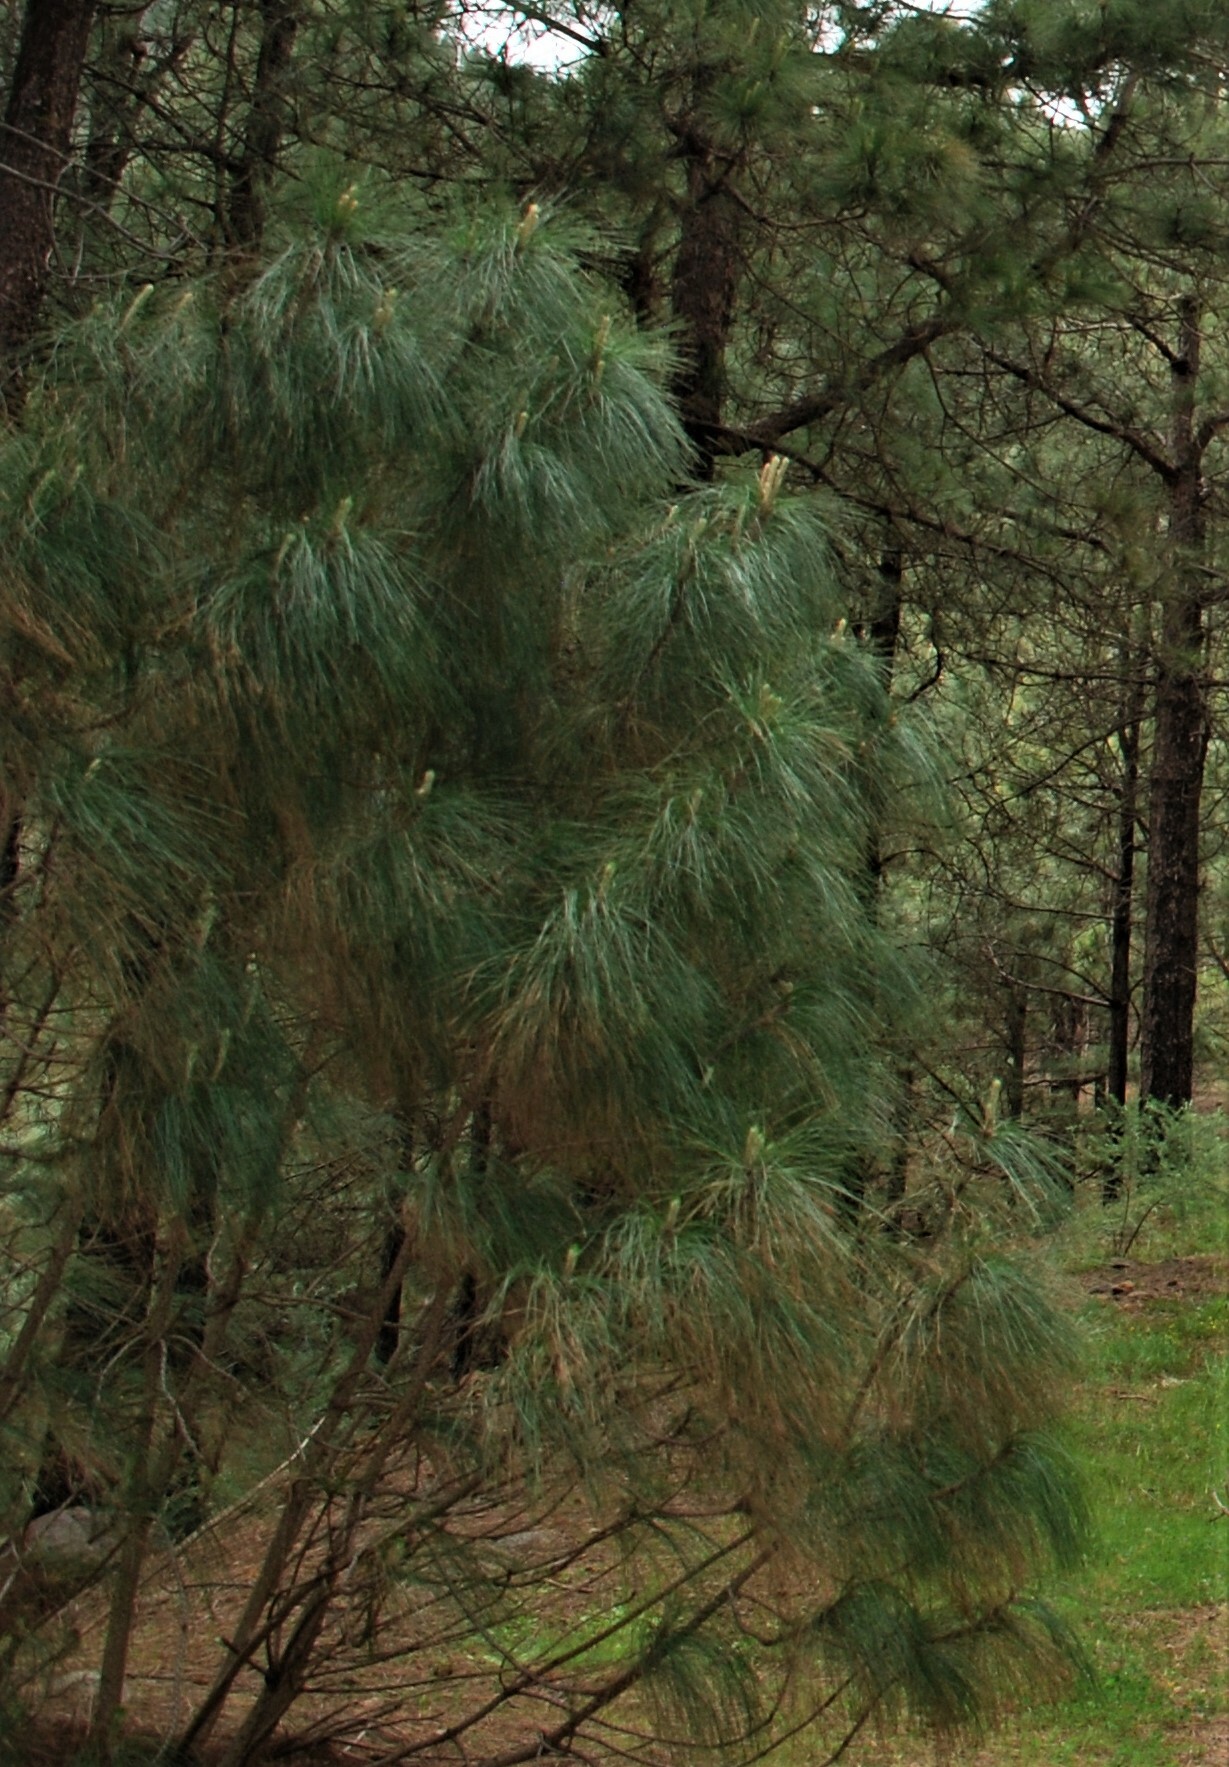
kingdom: Plantae
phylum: Tracheophyta
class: Pinopsida
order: Pinales
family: Pinaceae
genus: Pinus
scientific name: Pinus canariensis
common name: Canary islands pine
